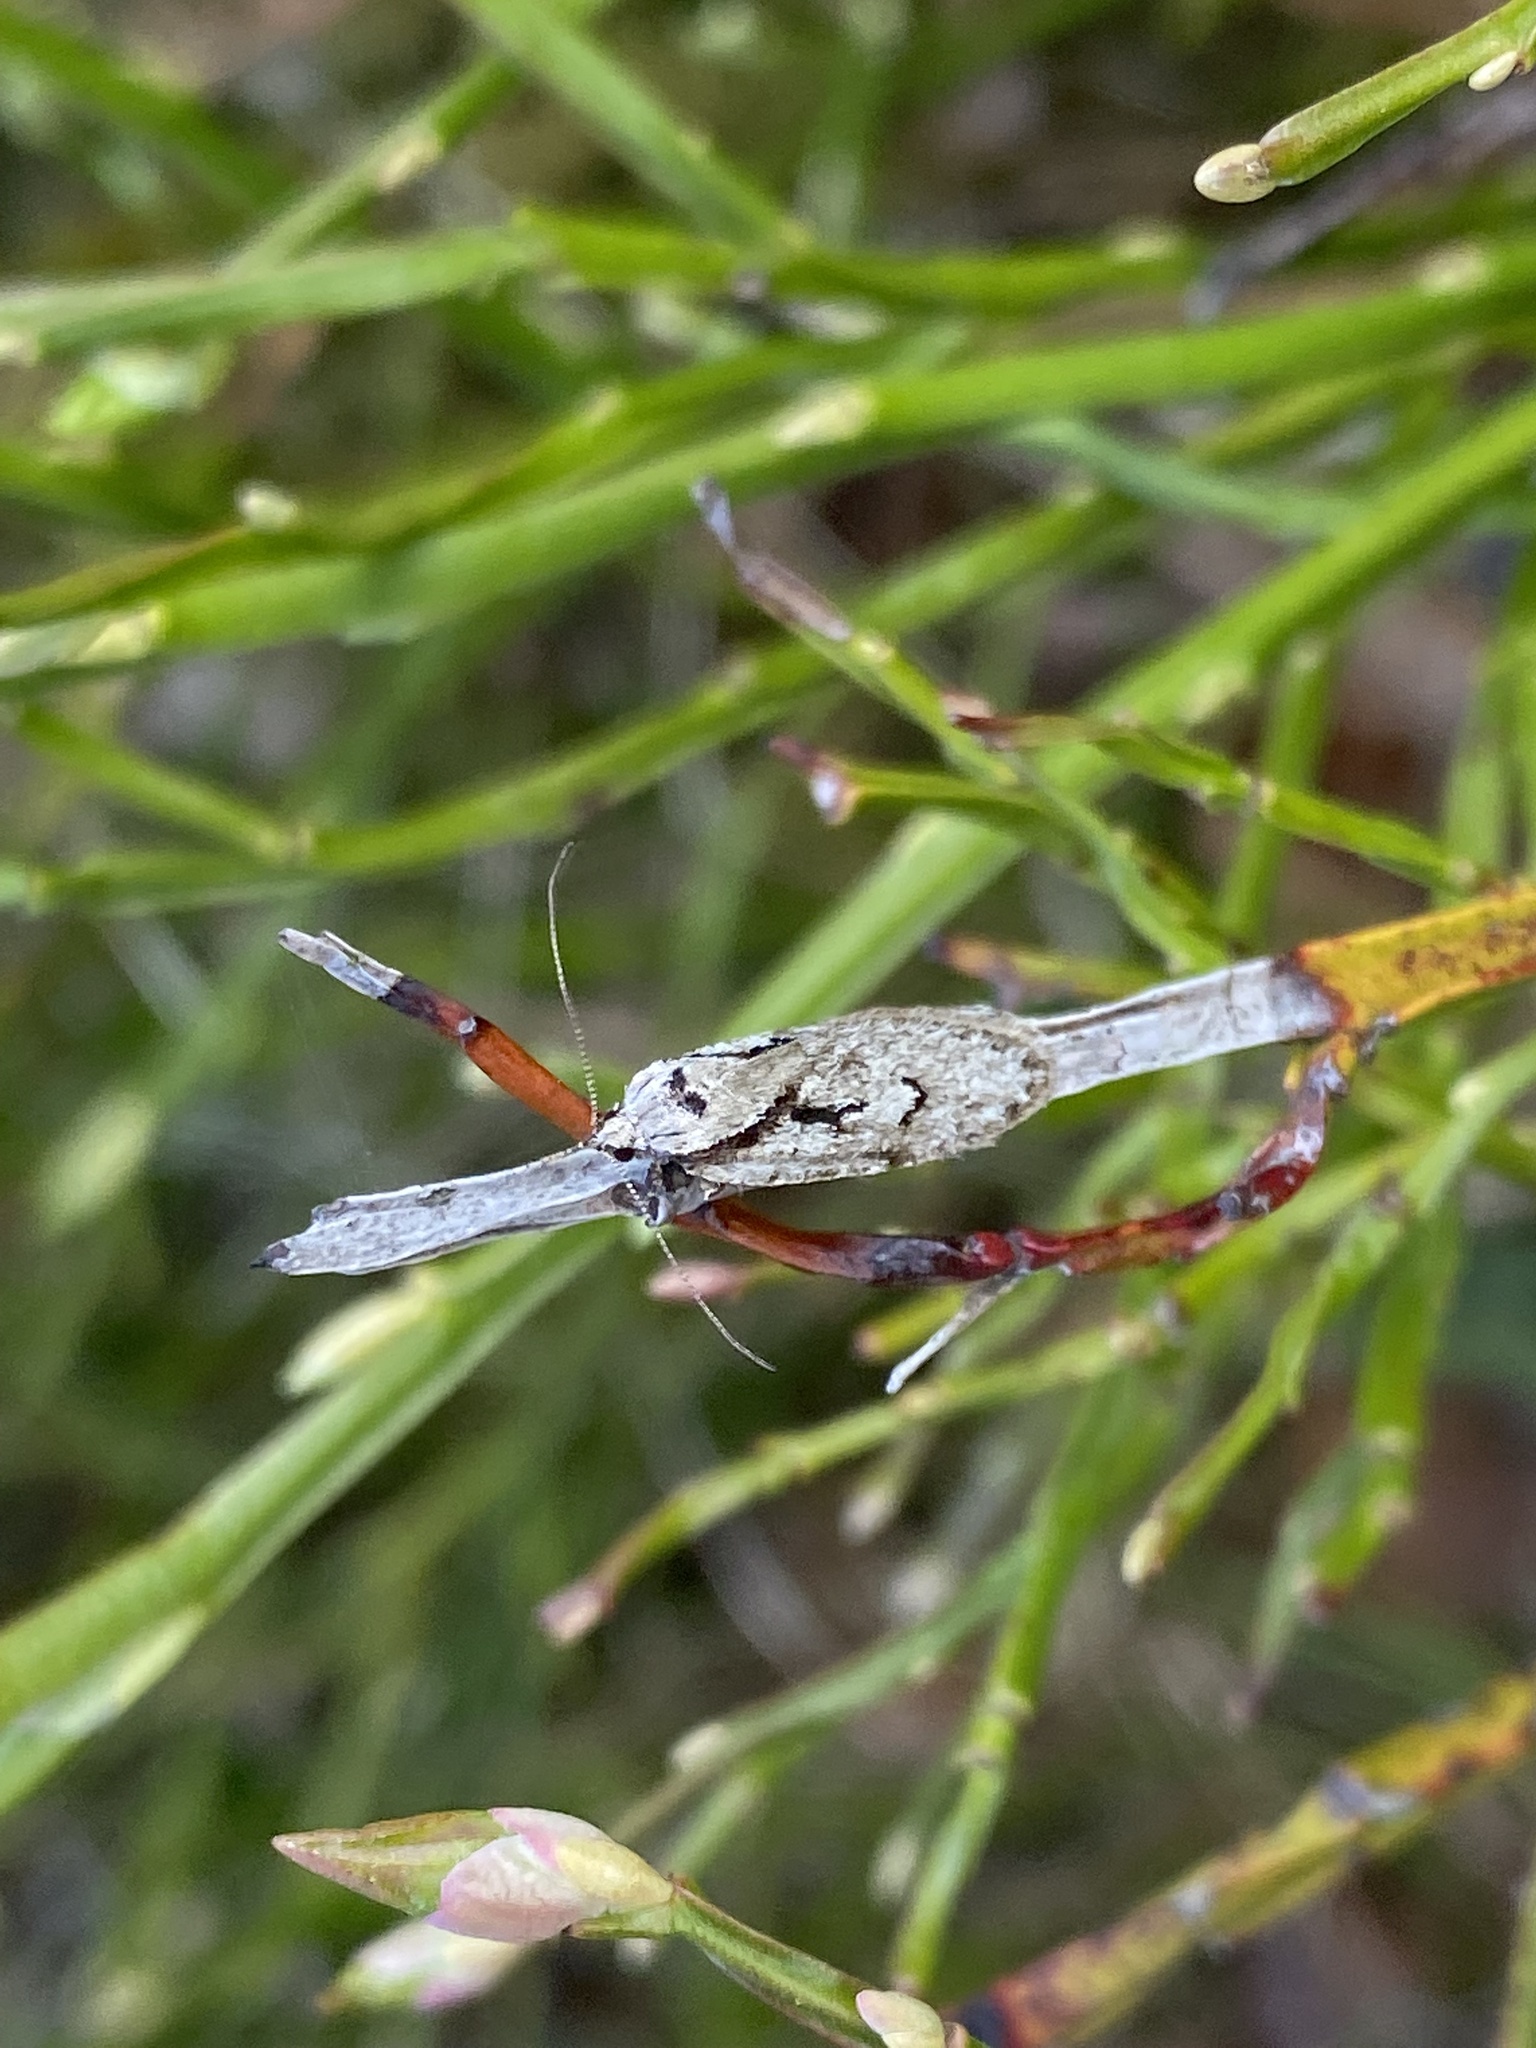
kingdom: Animalia
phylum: Arthropoda
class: Insecta
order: Lepidoptera
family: Depressariidae
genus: Semioscopis
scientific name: Semioscopis avellanella
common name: Early flat-body
